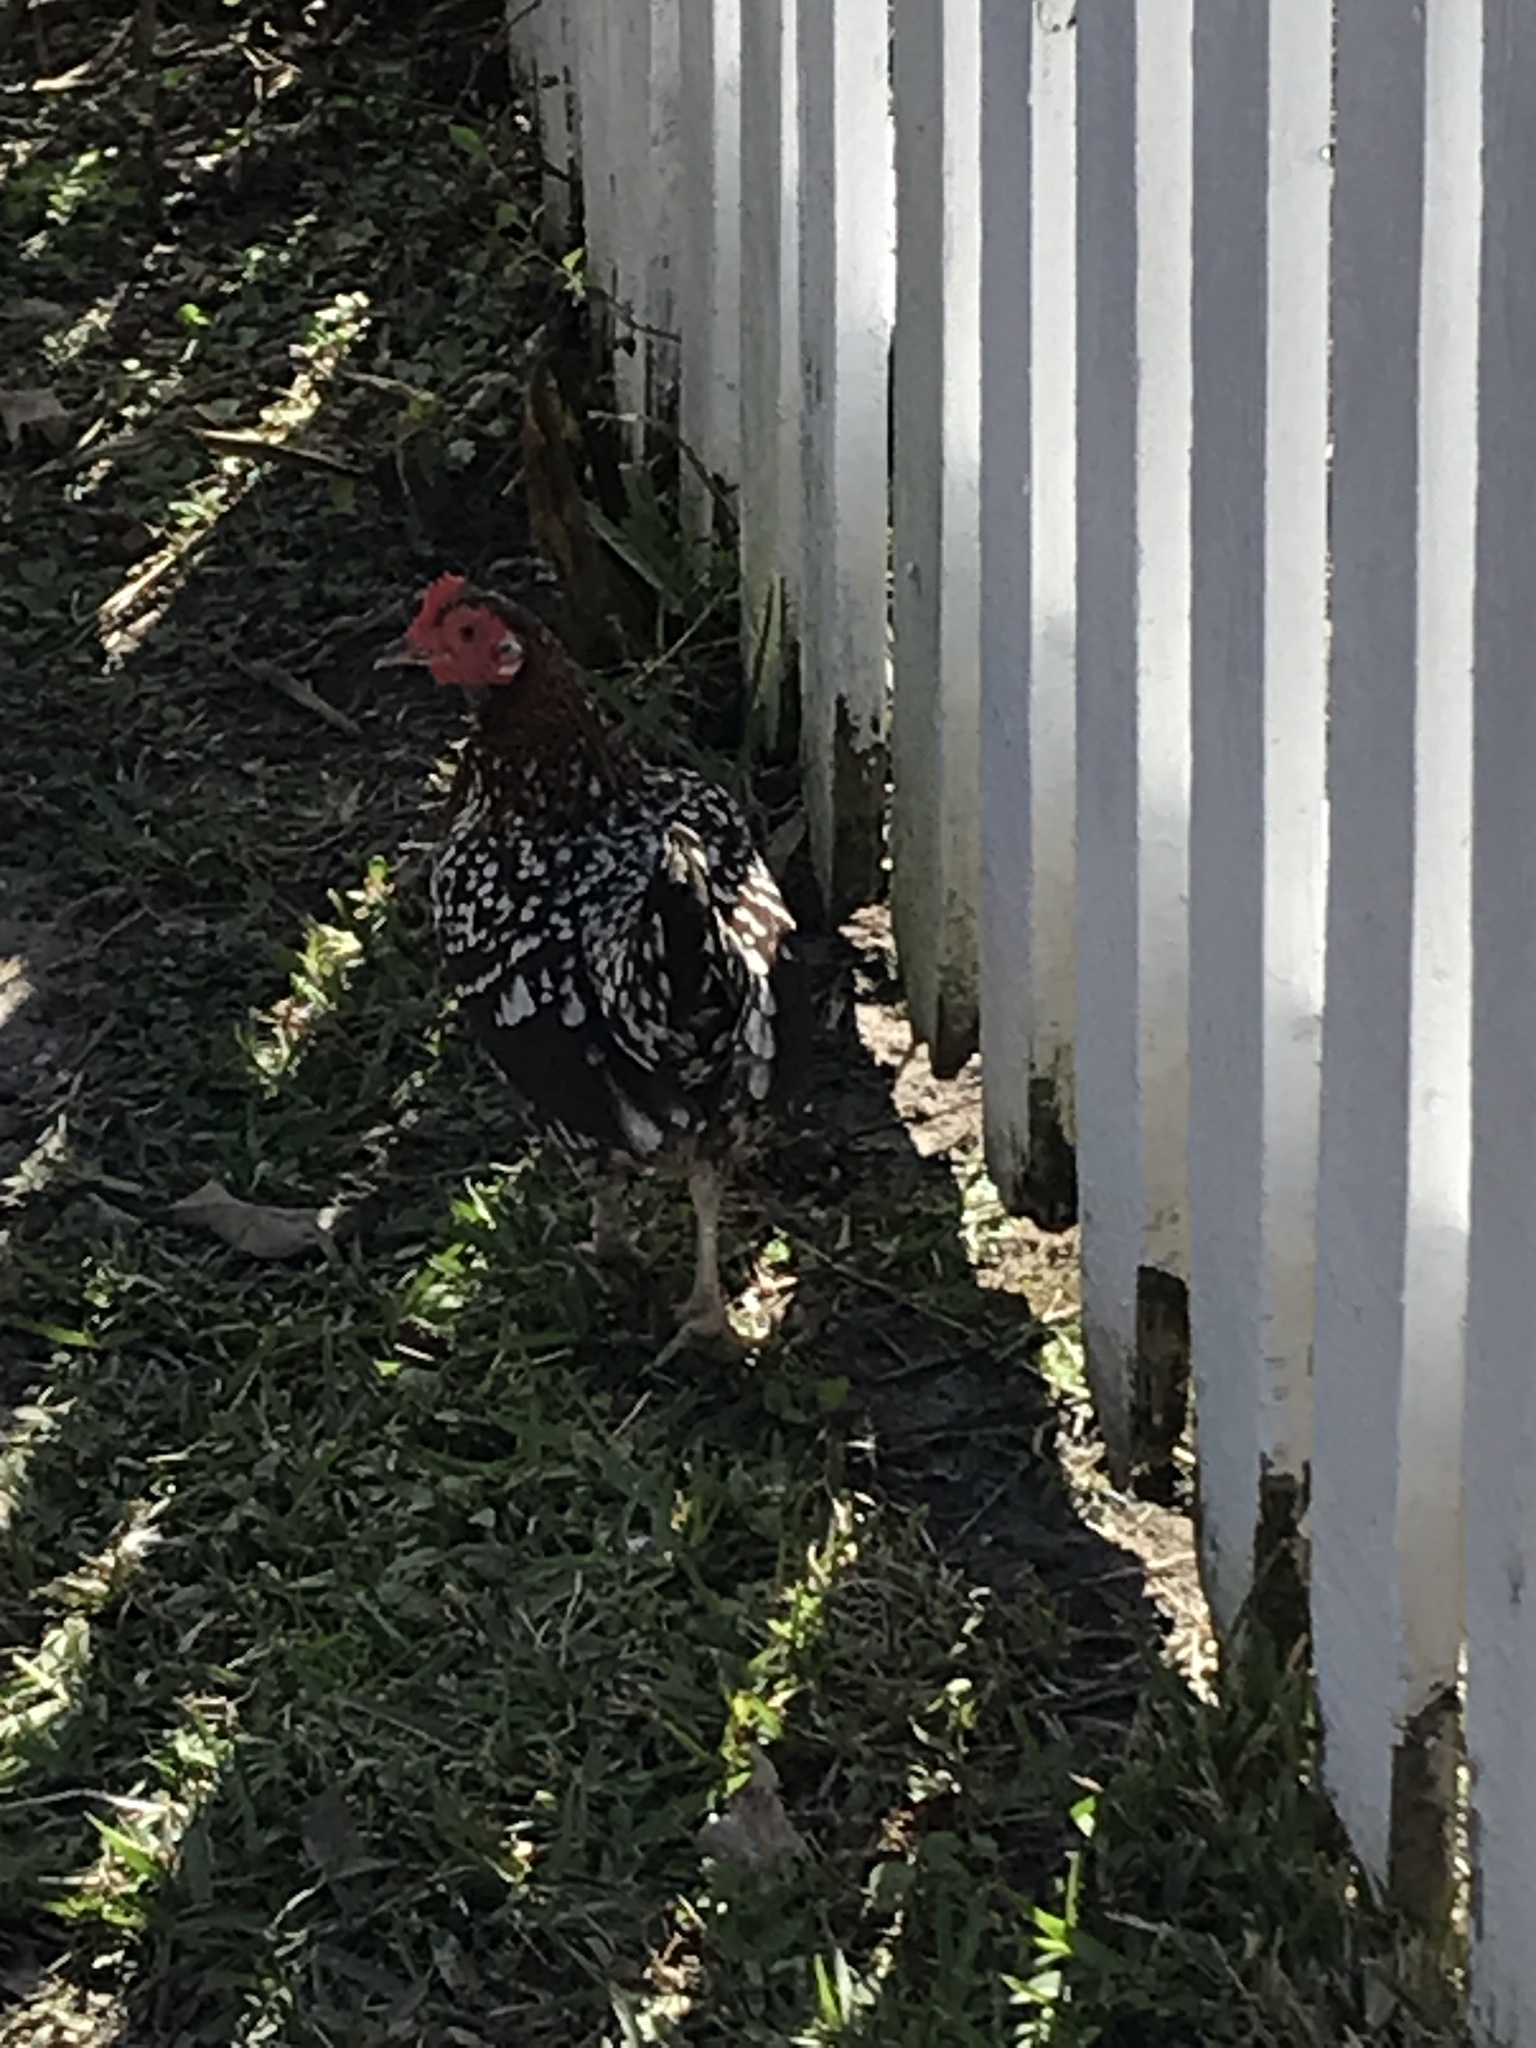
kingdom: Animalia
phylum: Chordata
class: Aves
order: Galliformes
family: Phasianidae
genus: Gallus
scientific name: Gallus gallus
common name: Red junglefowl
